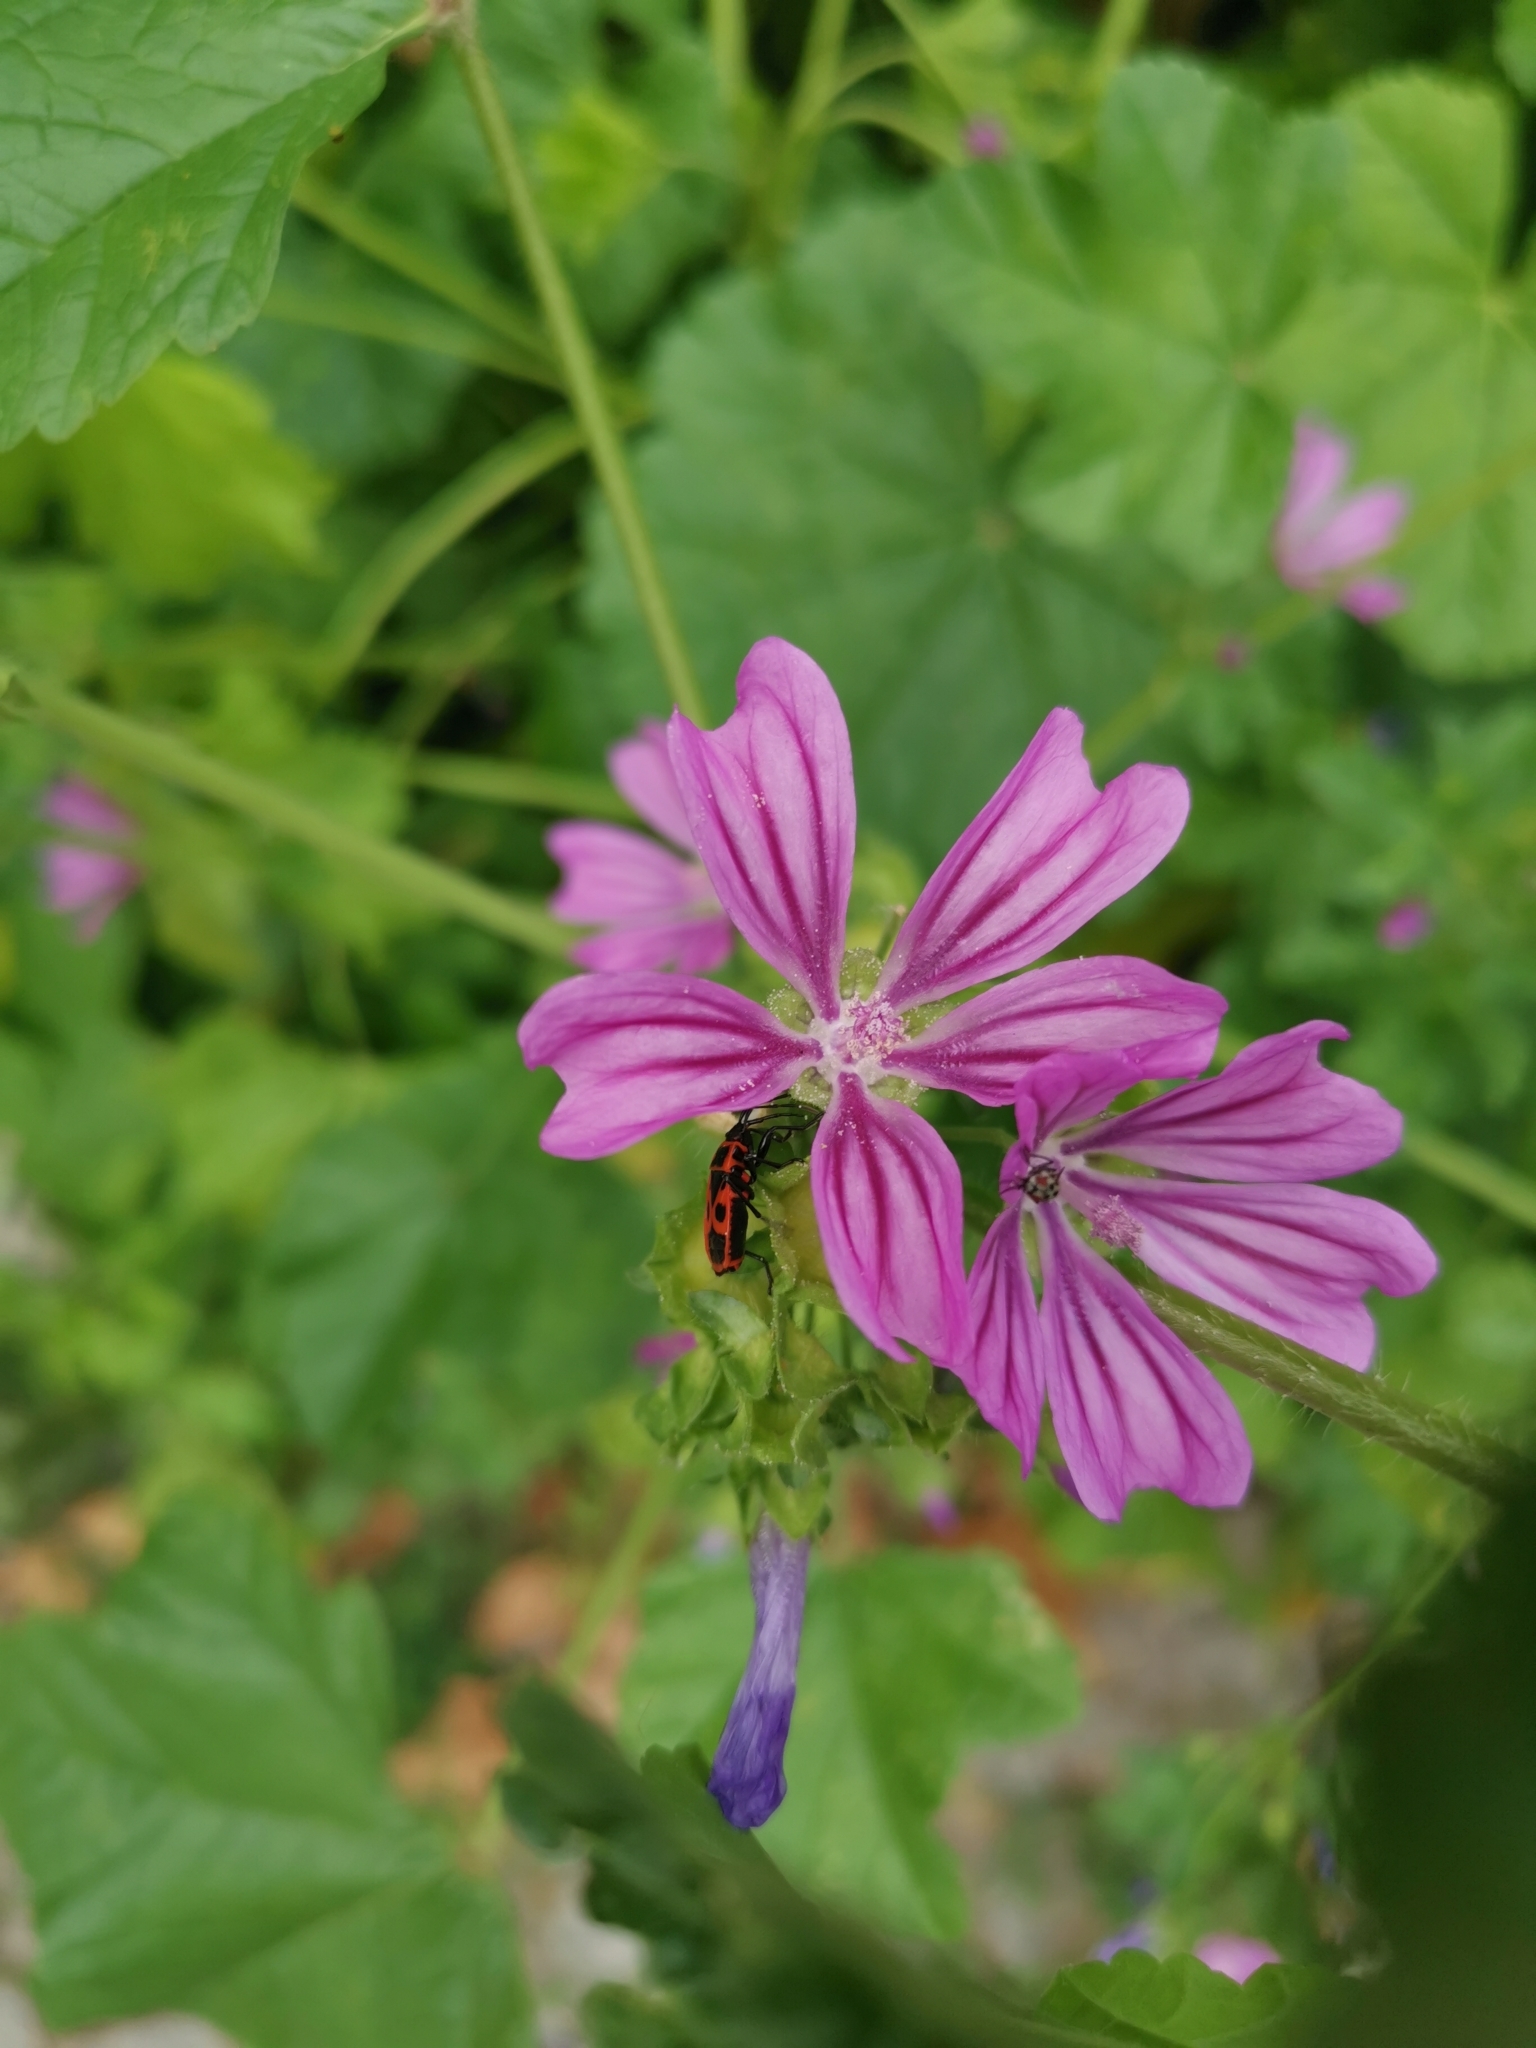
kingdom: Plantae
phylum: Tracheophyta
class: Magnoliopsida
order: Malvales
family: Malvaceae
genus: Malva
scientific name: Malva sylvestris
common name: Common mallow
